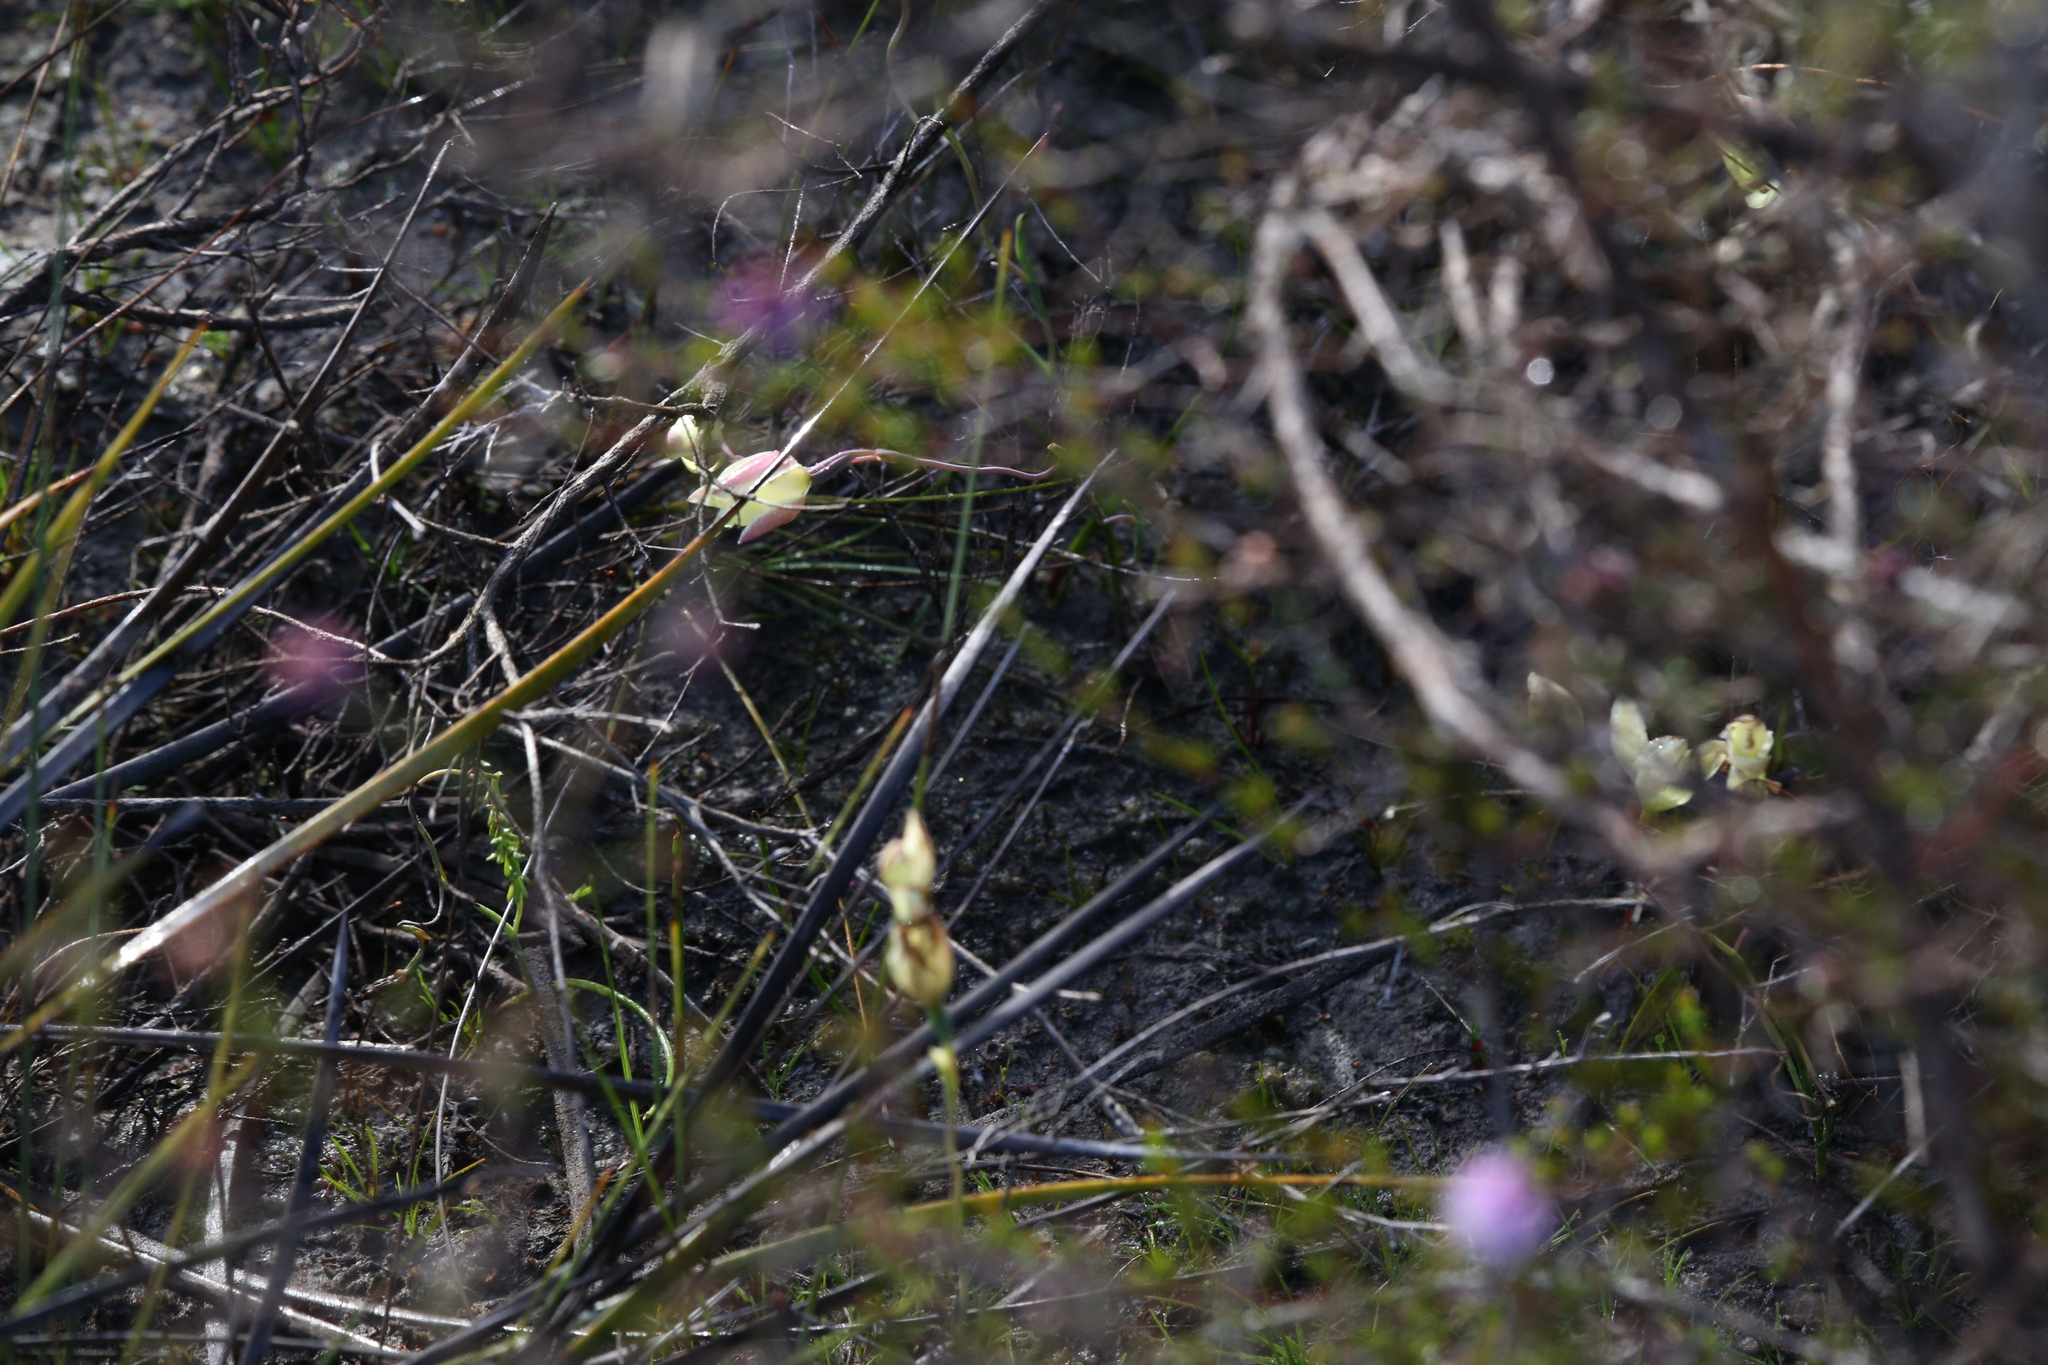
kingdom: Plantae
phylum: Tracheophyta
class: Liliopsida
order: Asparagales
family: Orchidaceae
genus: Thelymitra
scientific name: Thelymitra antennifera
